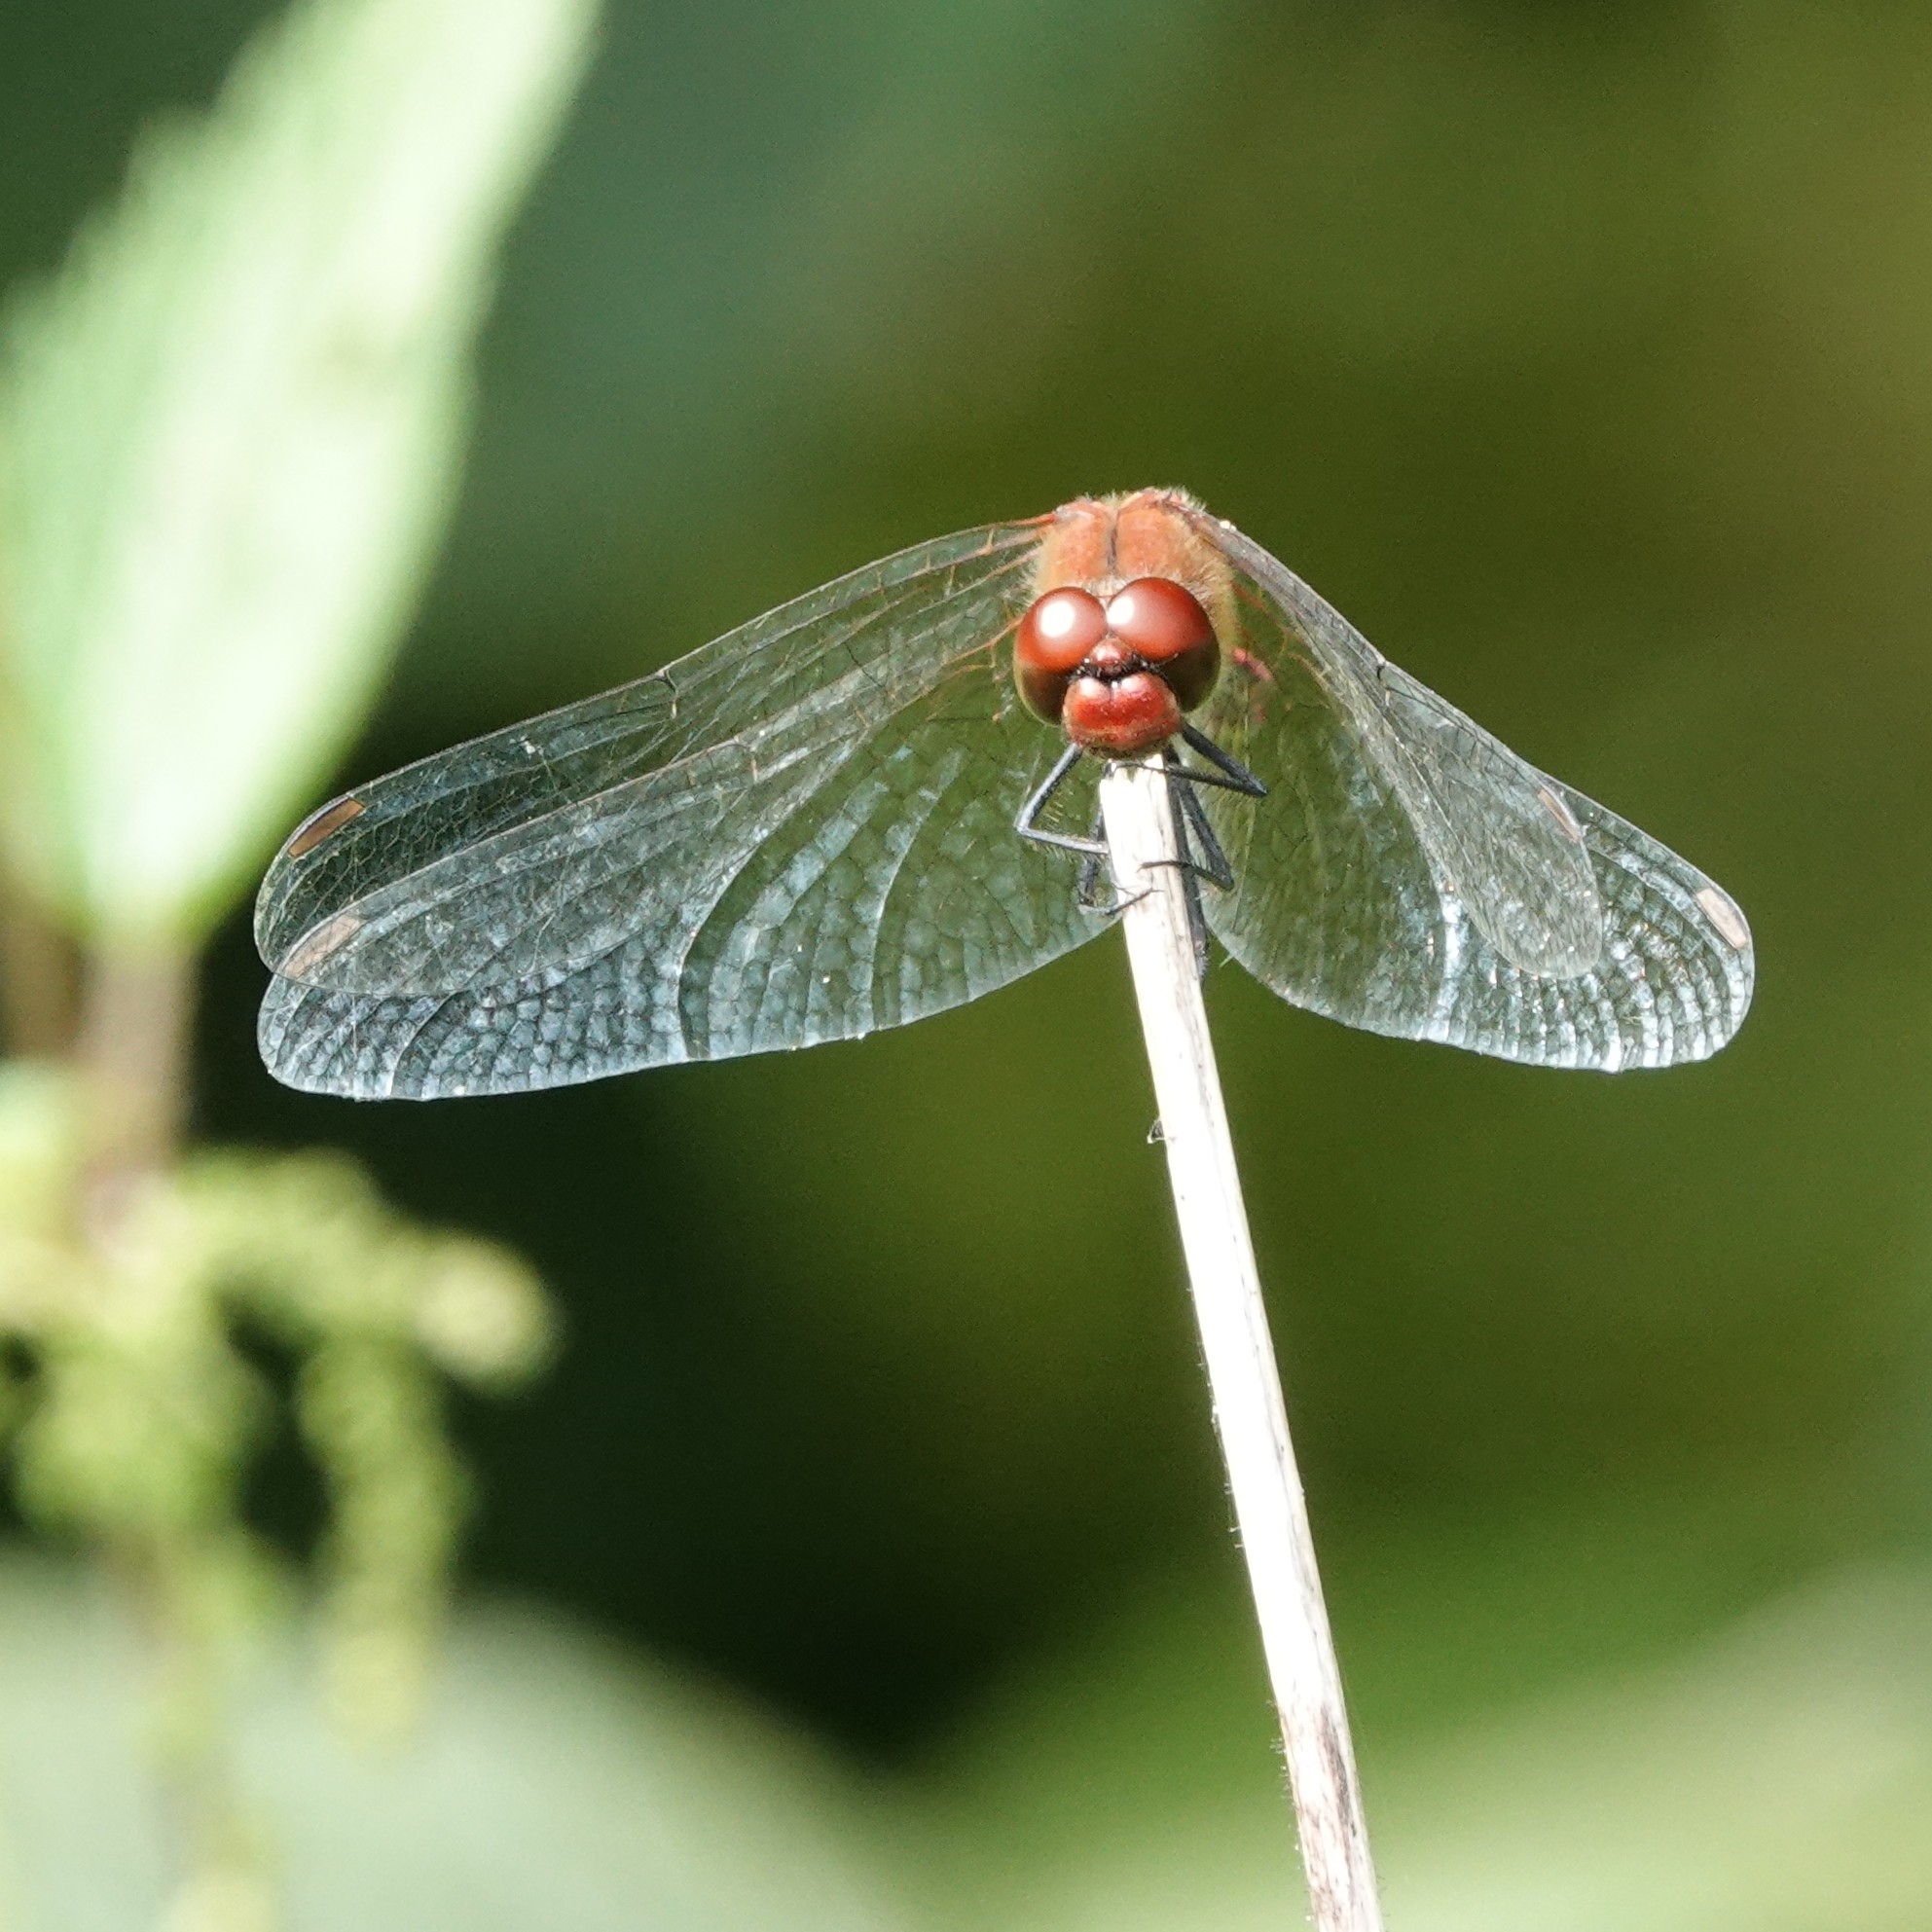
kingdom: Animalia
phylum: Arthropoda
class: Insecta
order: Odonata
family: Libellulidae
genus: Sympetrum
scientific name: Sympetrum sanguineum
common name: Ruddy darter
